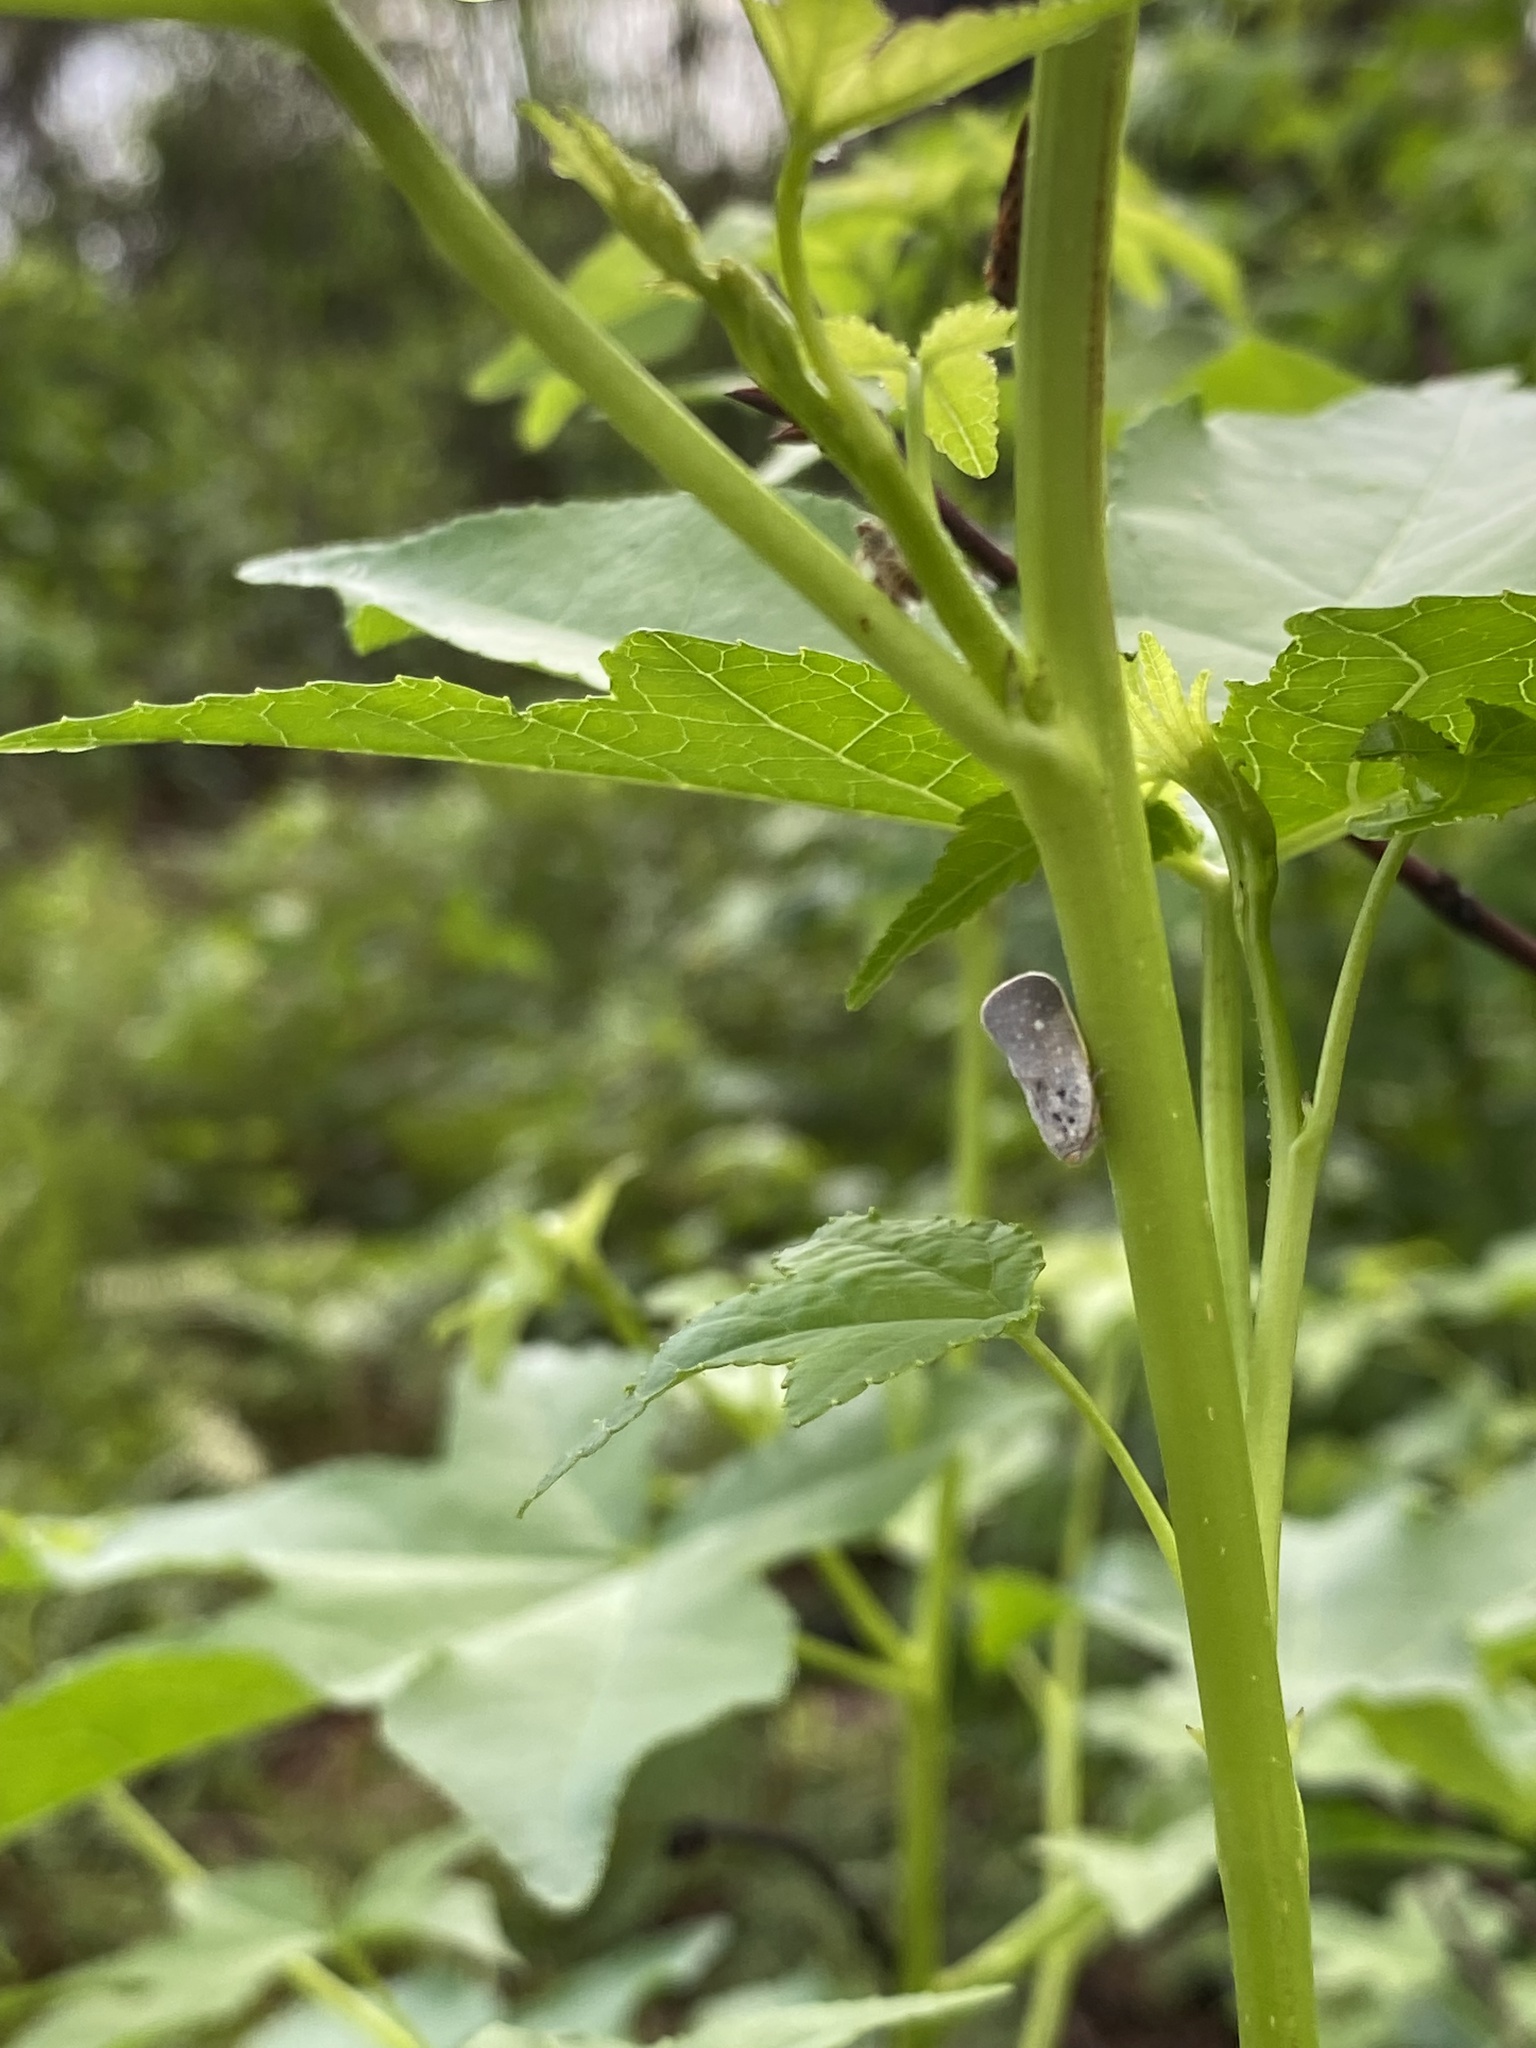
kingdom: Animalia
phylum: Arthropoda
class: Insecta
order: Hemiptera
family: Flatidae
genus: Metcalfa
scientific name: Metcalfa pruinosa
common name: Citrus flatid planthopper
